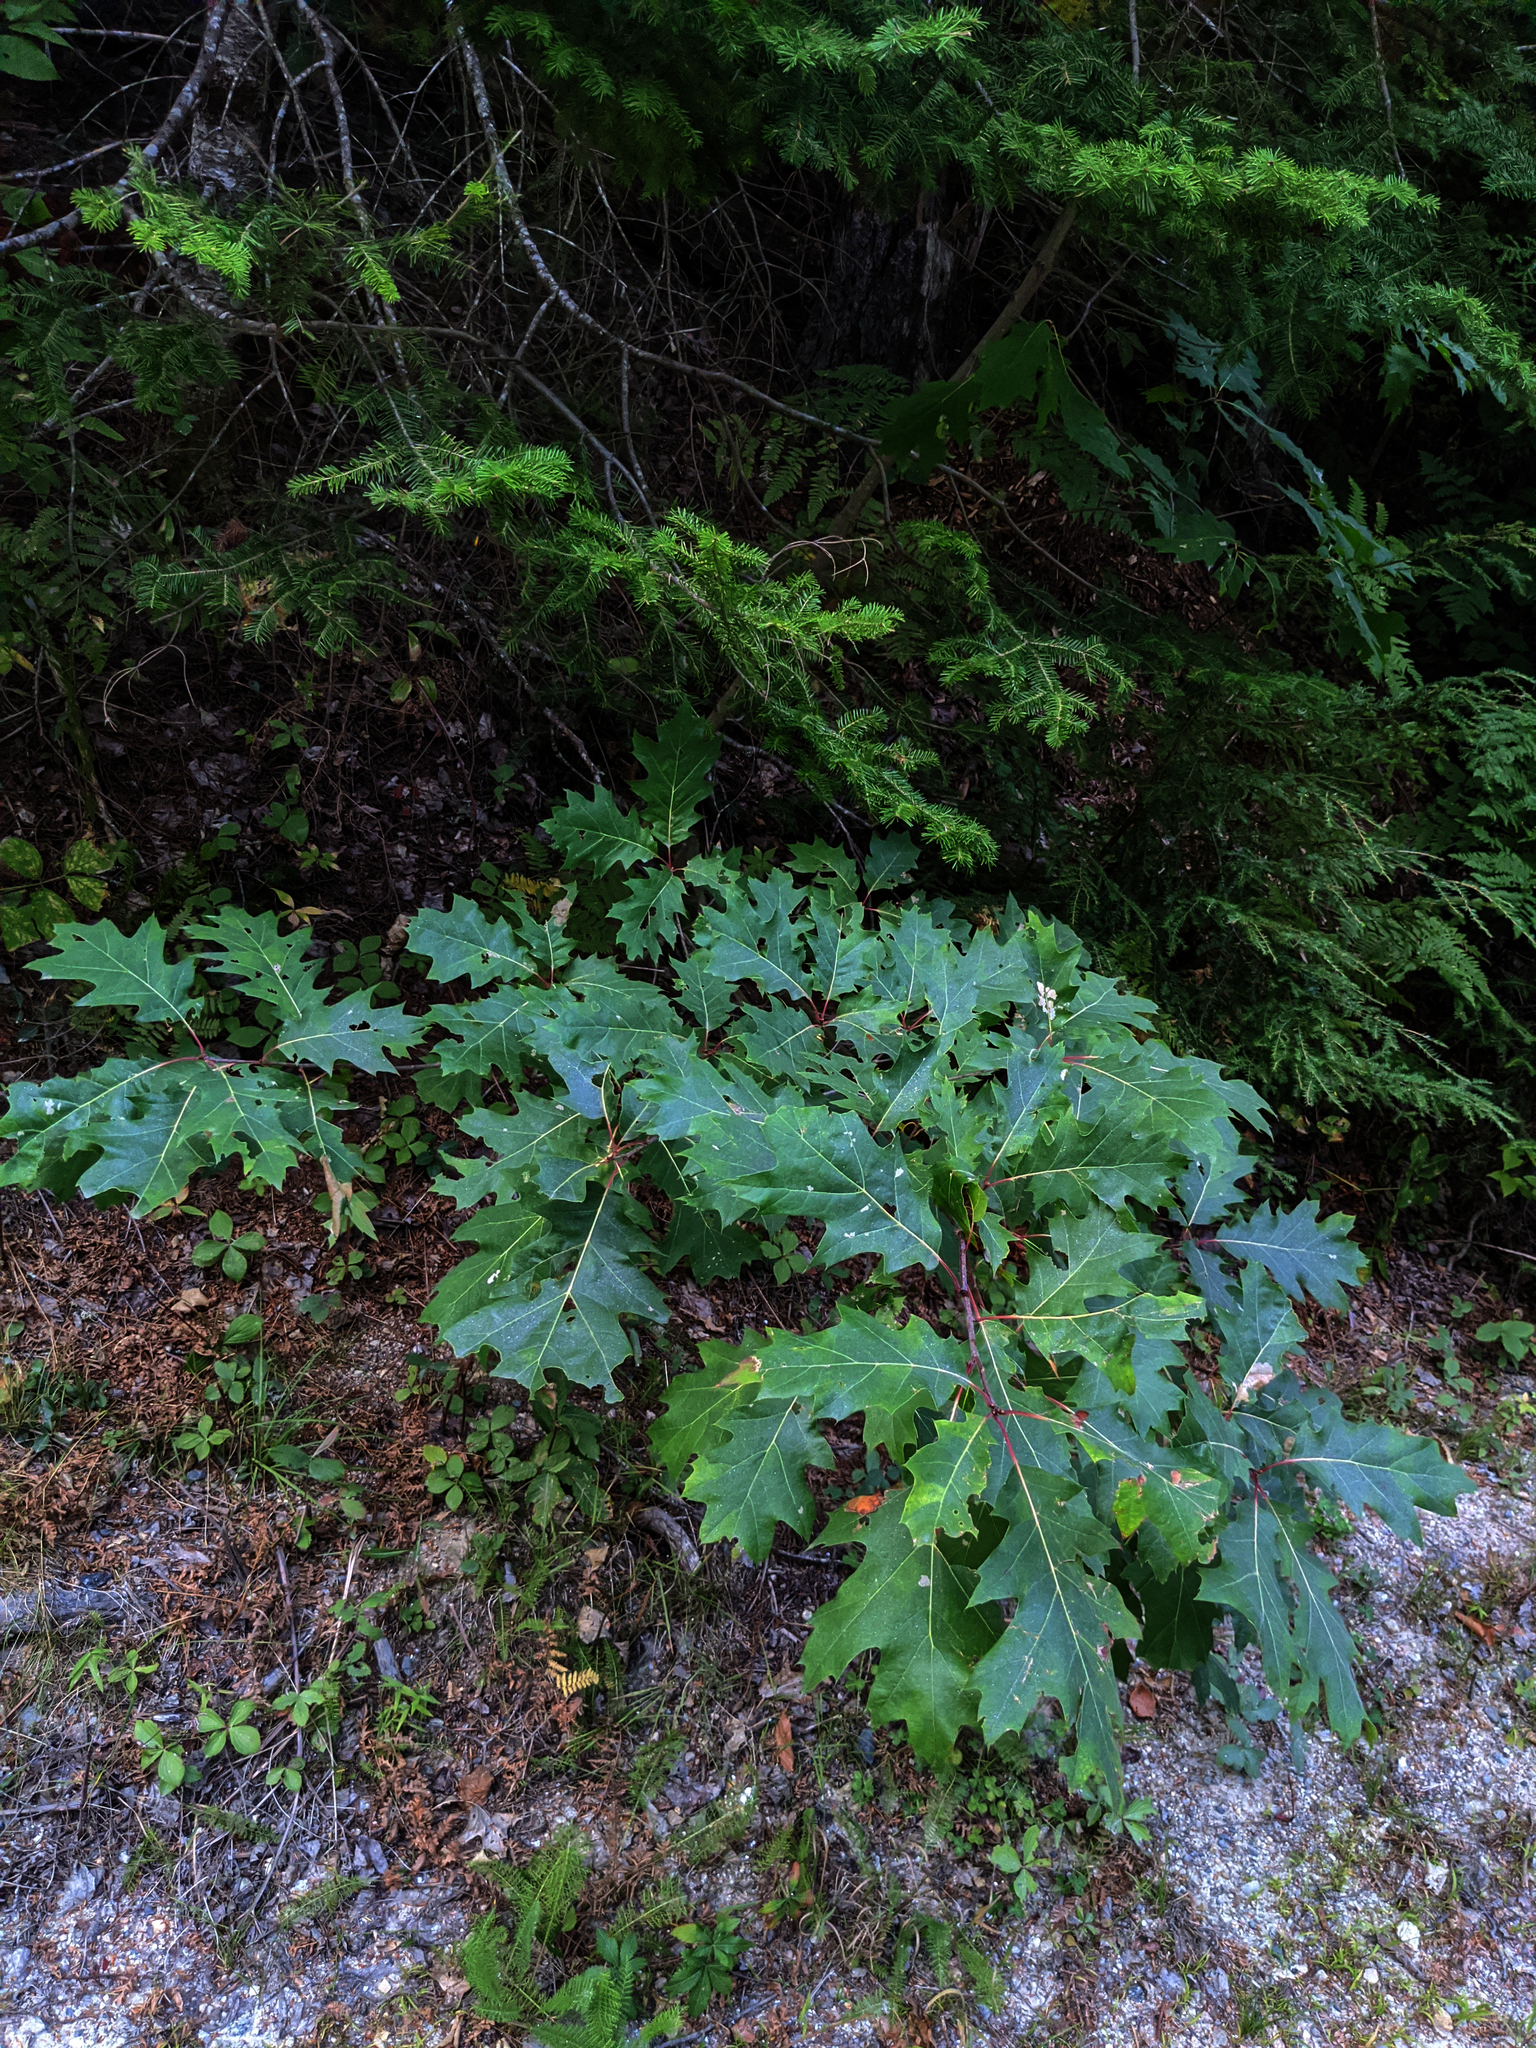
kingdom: Plantae
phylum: Tracheophyta
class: Magnoliopsida
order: Fagales
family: Fagaceae
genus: Quercus
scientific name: Quercus rubra
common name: Red oak
